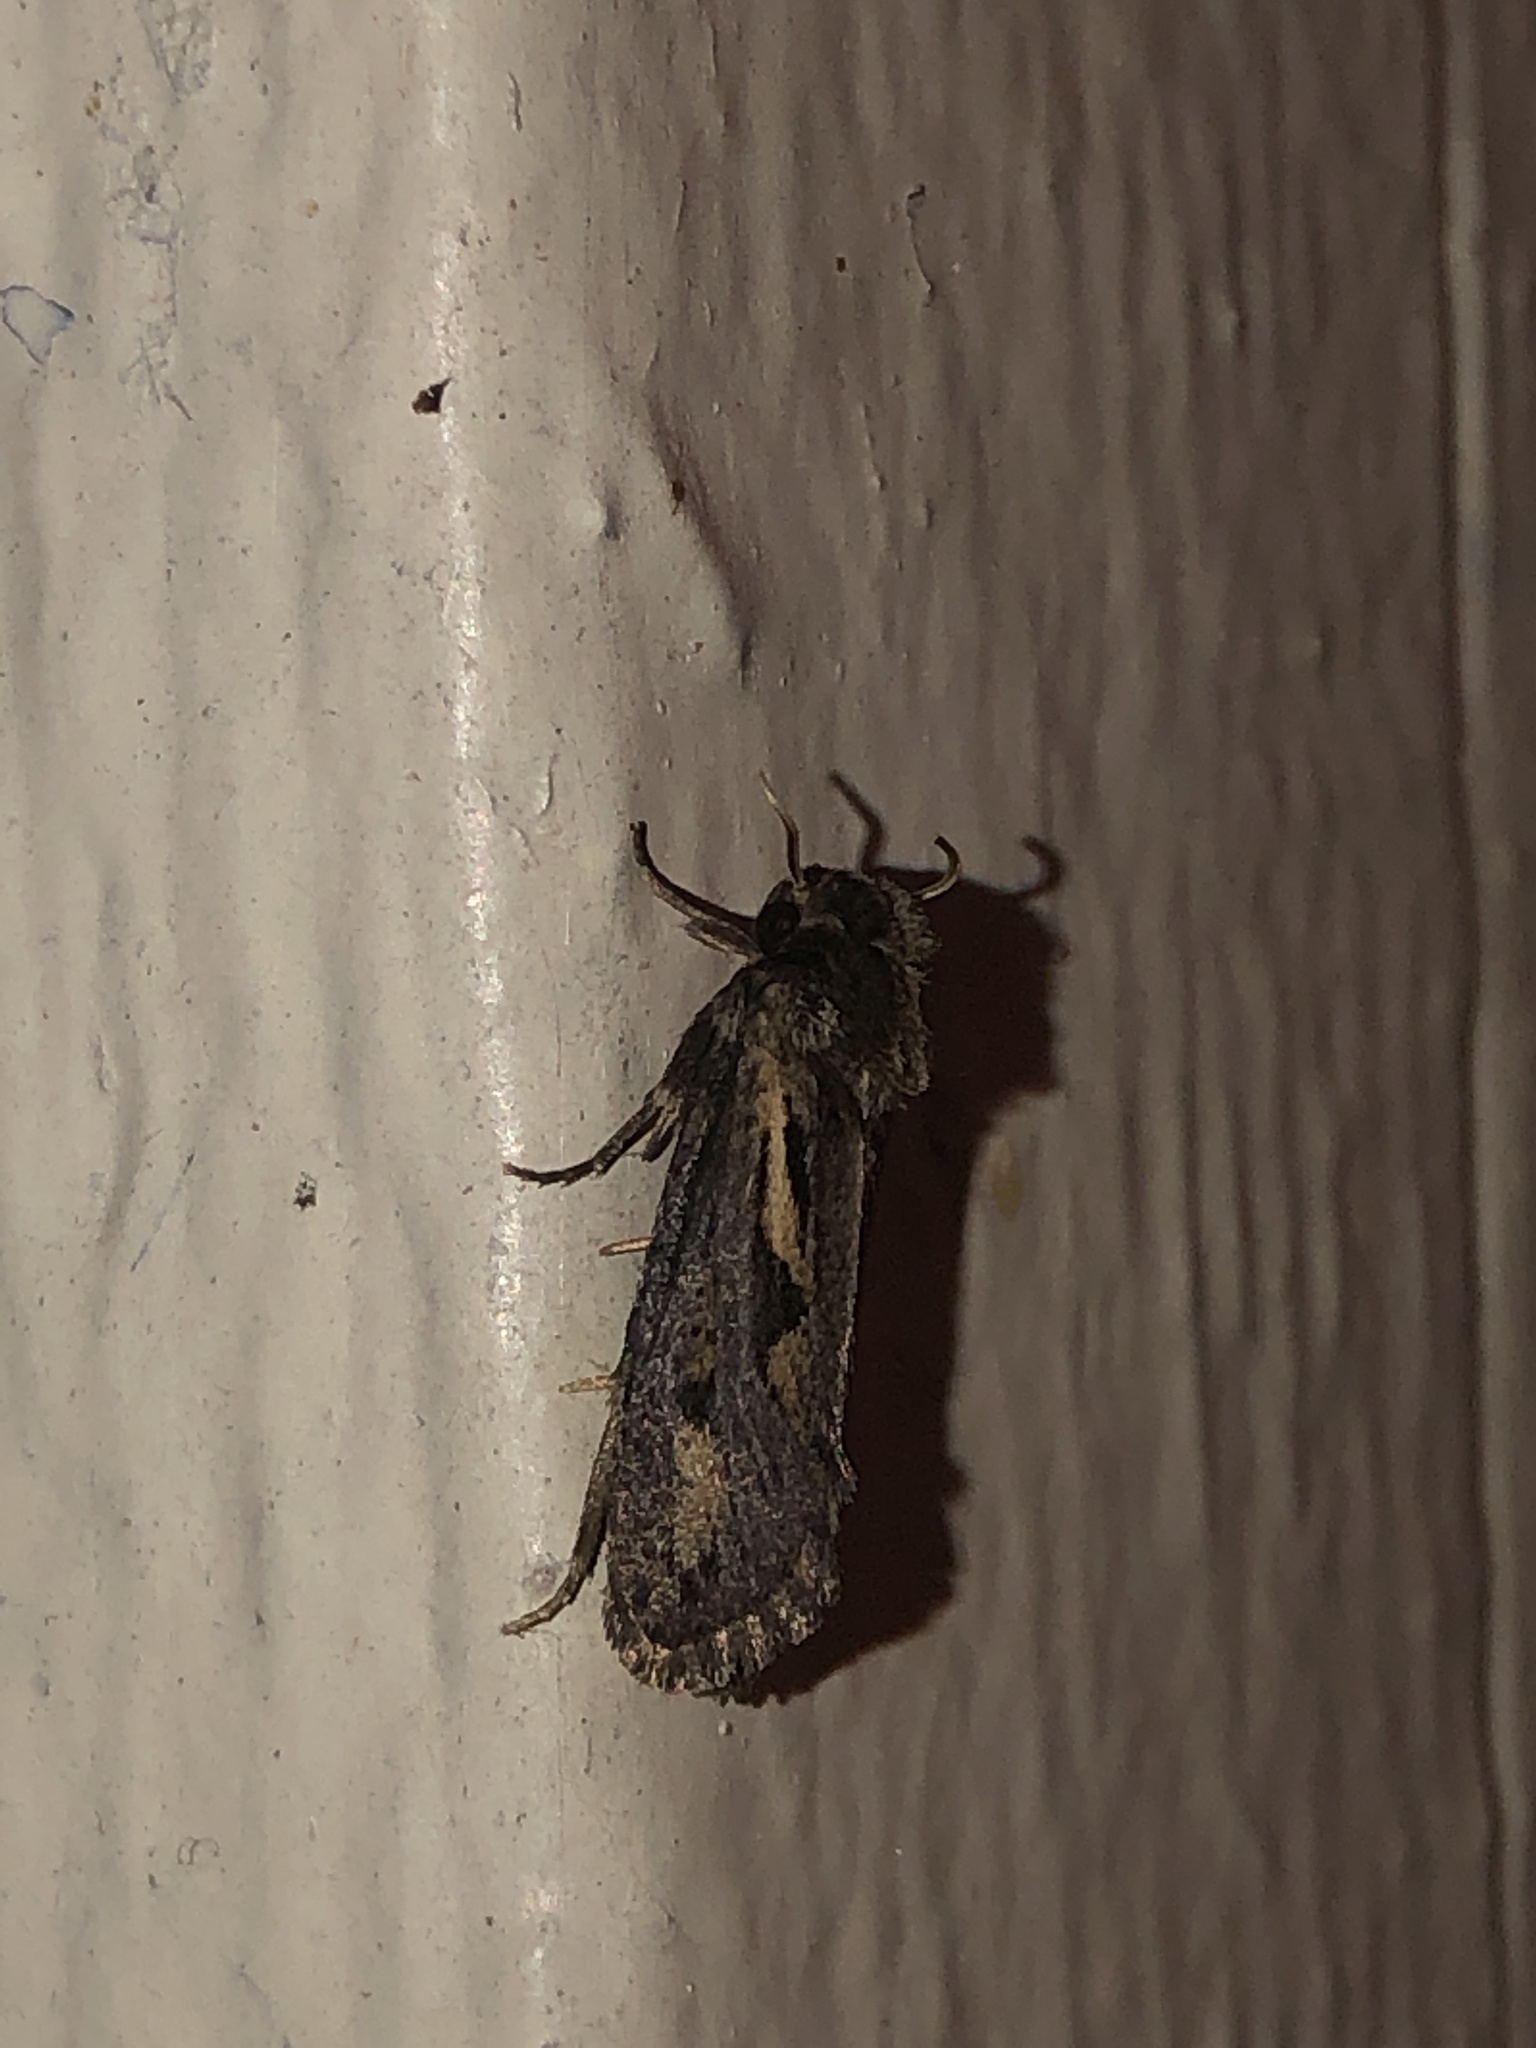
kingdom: Animalia
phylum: Arthropoda
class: Insecta
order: Lepidoptera
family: Tineidae
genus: Acrolophus
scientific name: Acrolophus popeanella
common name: Clemens' grass tubeworm moth
